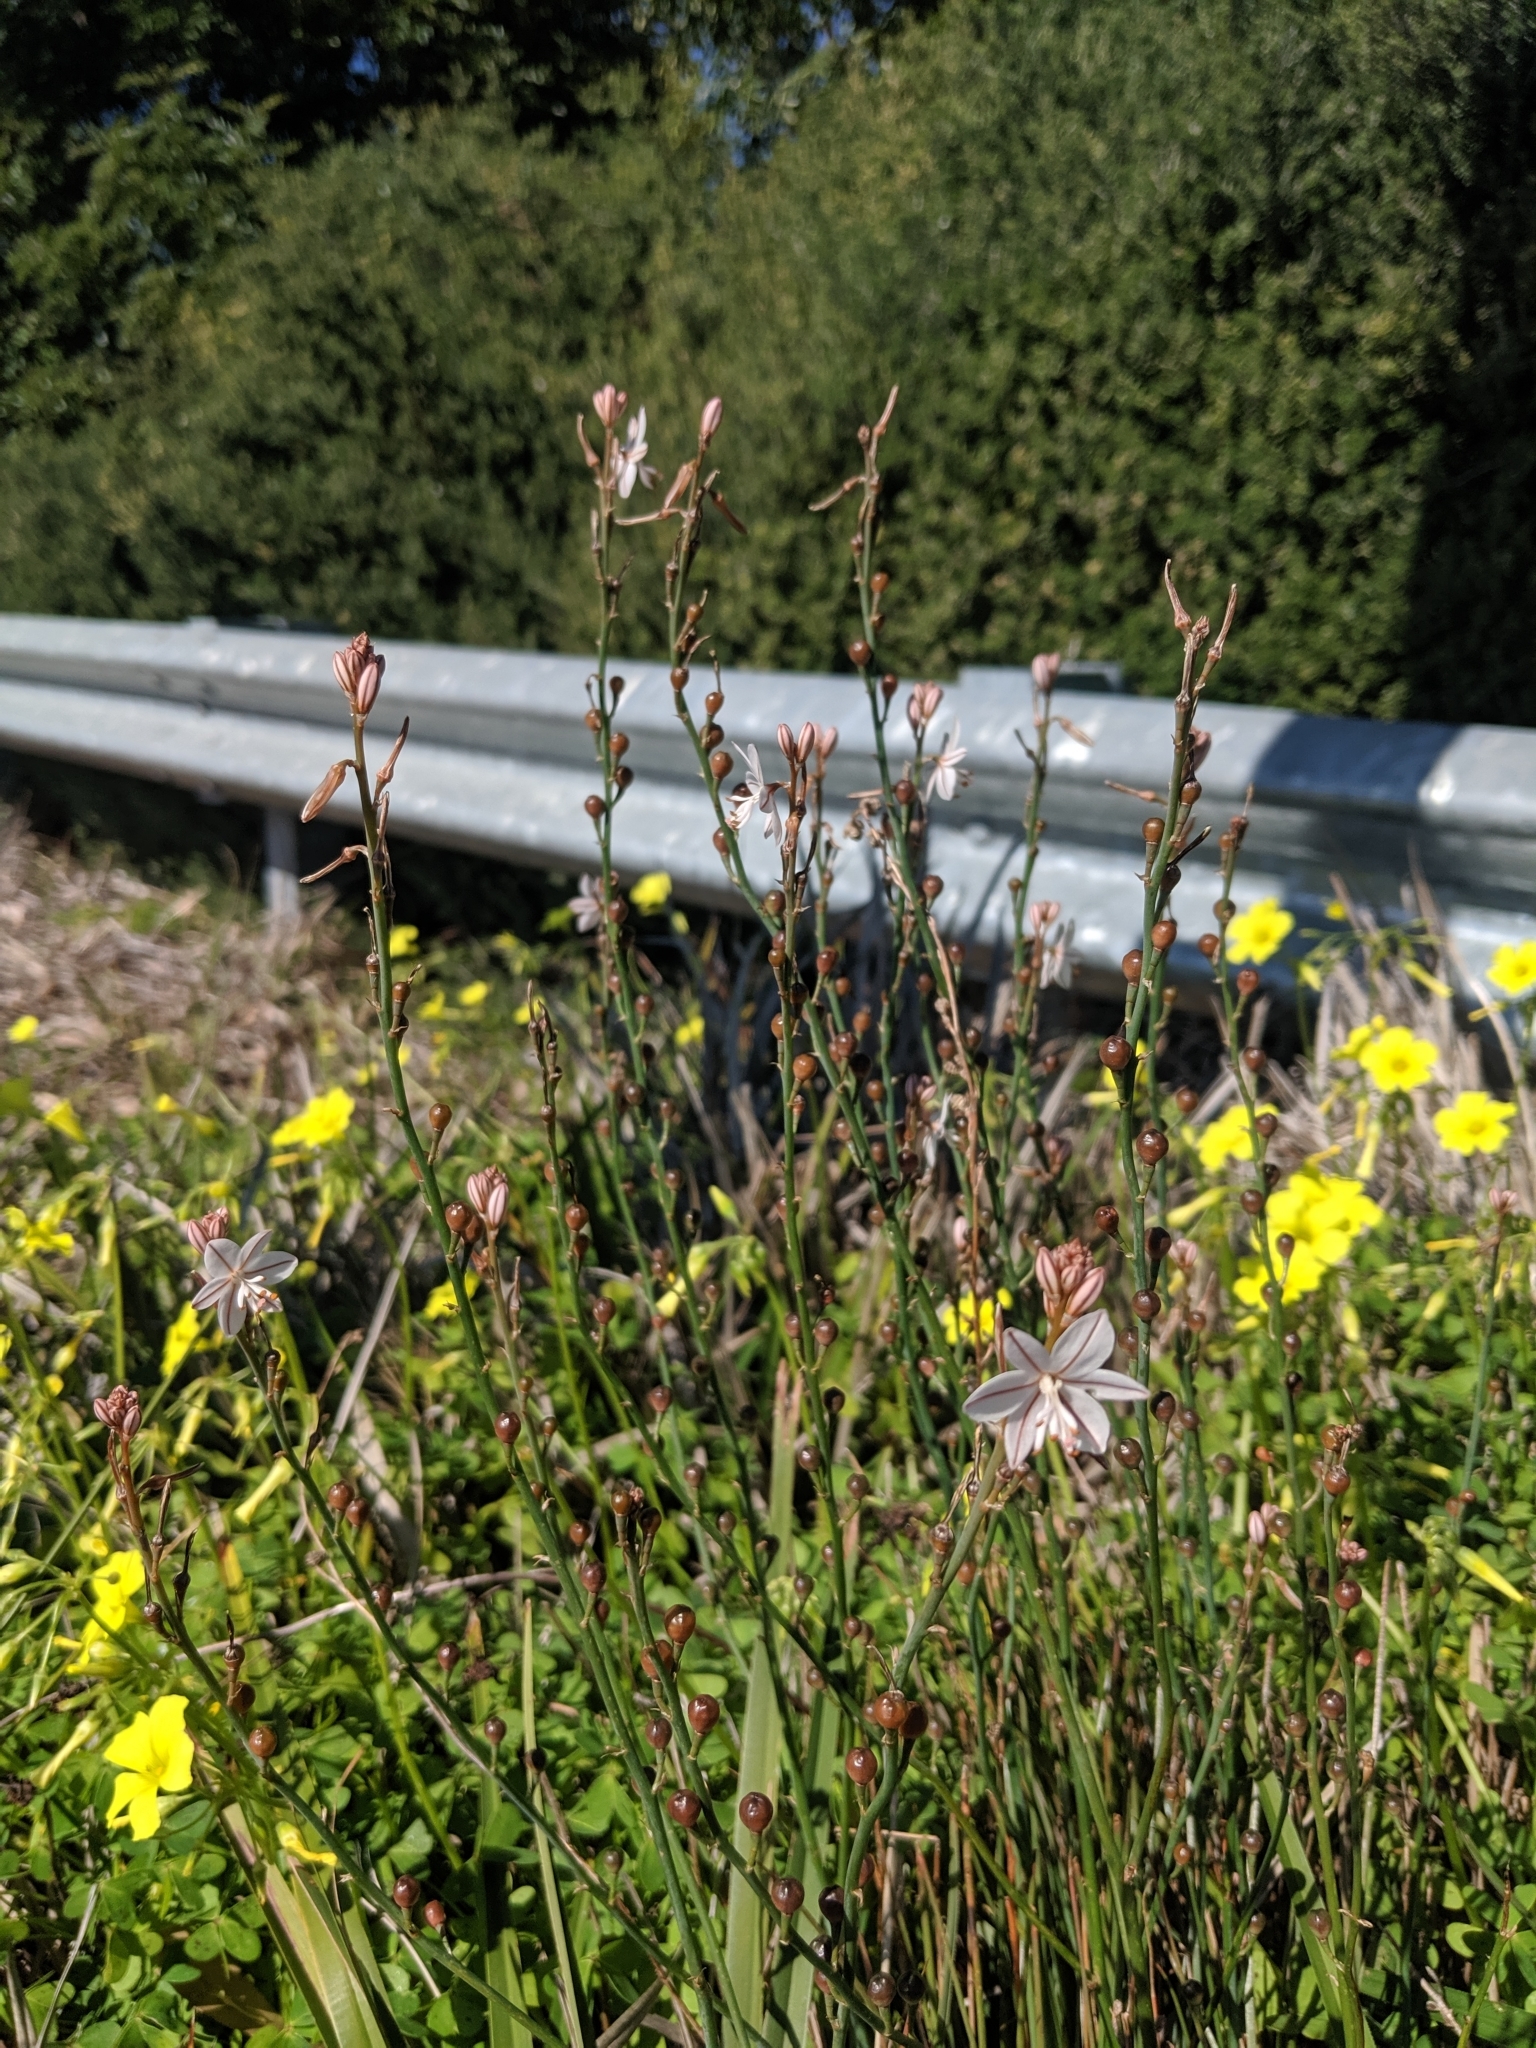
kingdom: Plantae
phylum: Tracheophyta
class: Liliopsida
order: Asparagales
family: Asphodelaceae
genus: Asphodelus
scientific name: Asphodelus fistulosus
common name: Onionweed
